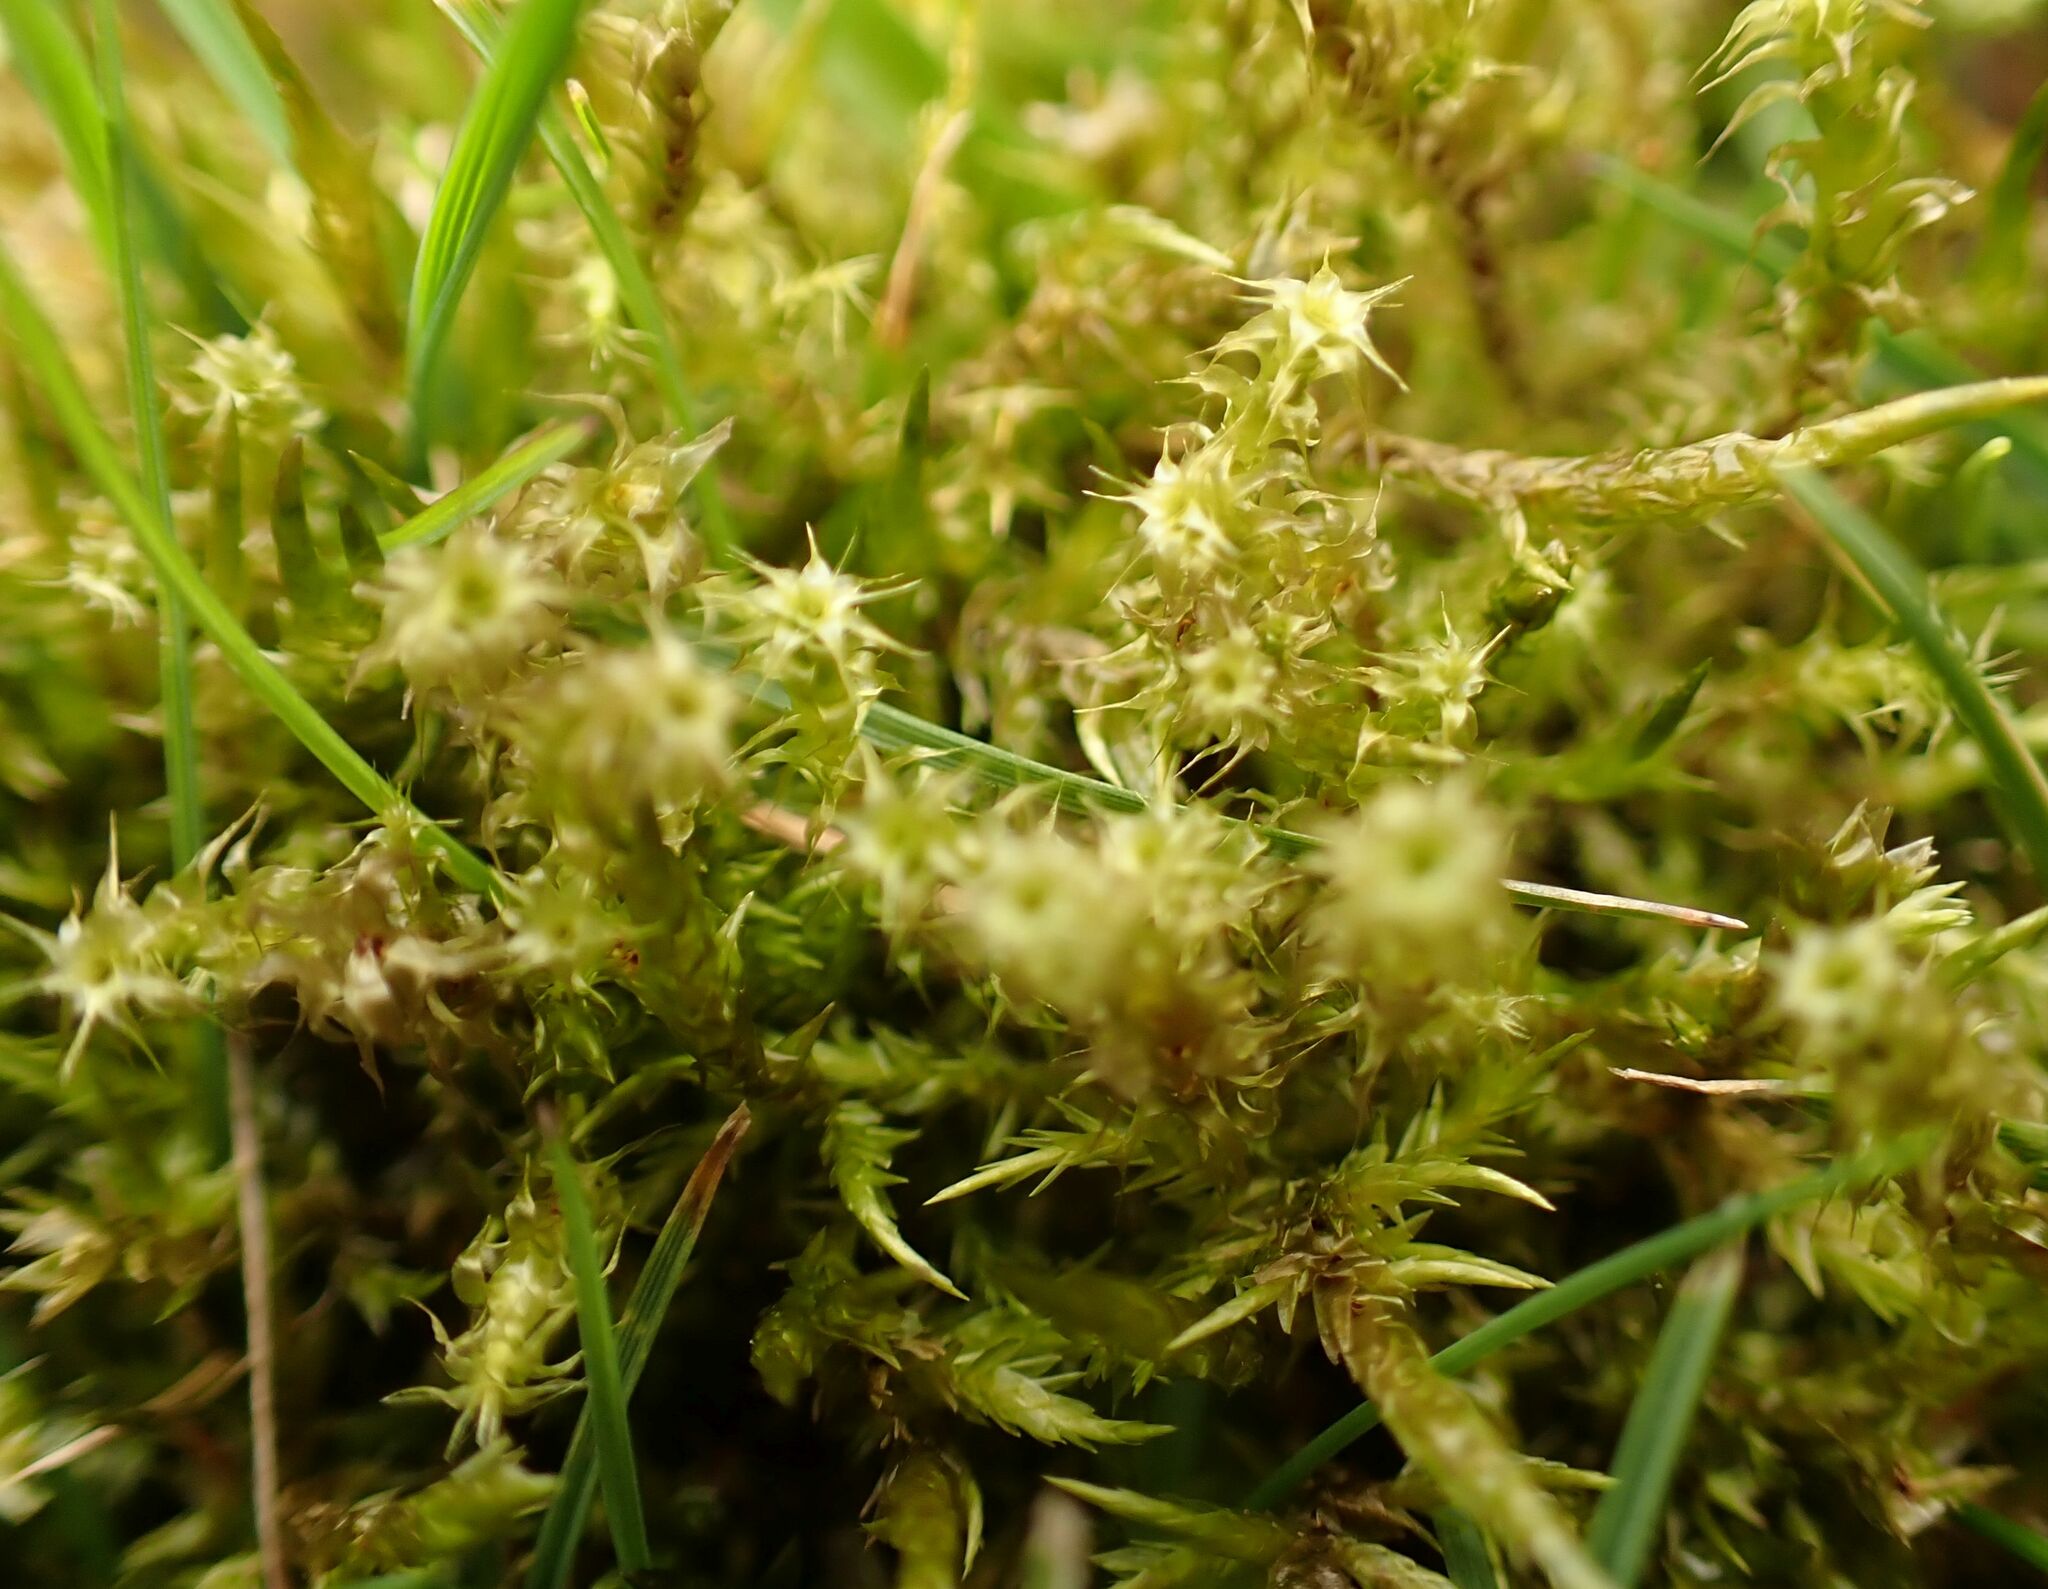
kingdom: Plantae
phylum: Bryophyta
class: Bryopsida
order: Hypnales
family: Hylocomiaceae
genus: Rhytidiadelphus
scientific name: Rhytidiadelphus squarrosus
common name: Springy turf-moss
